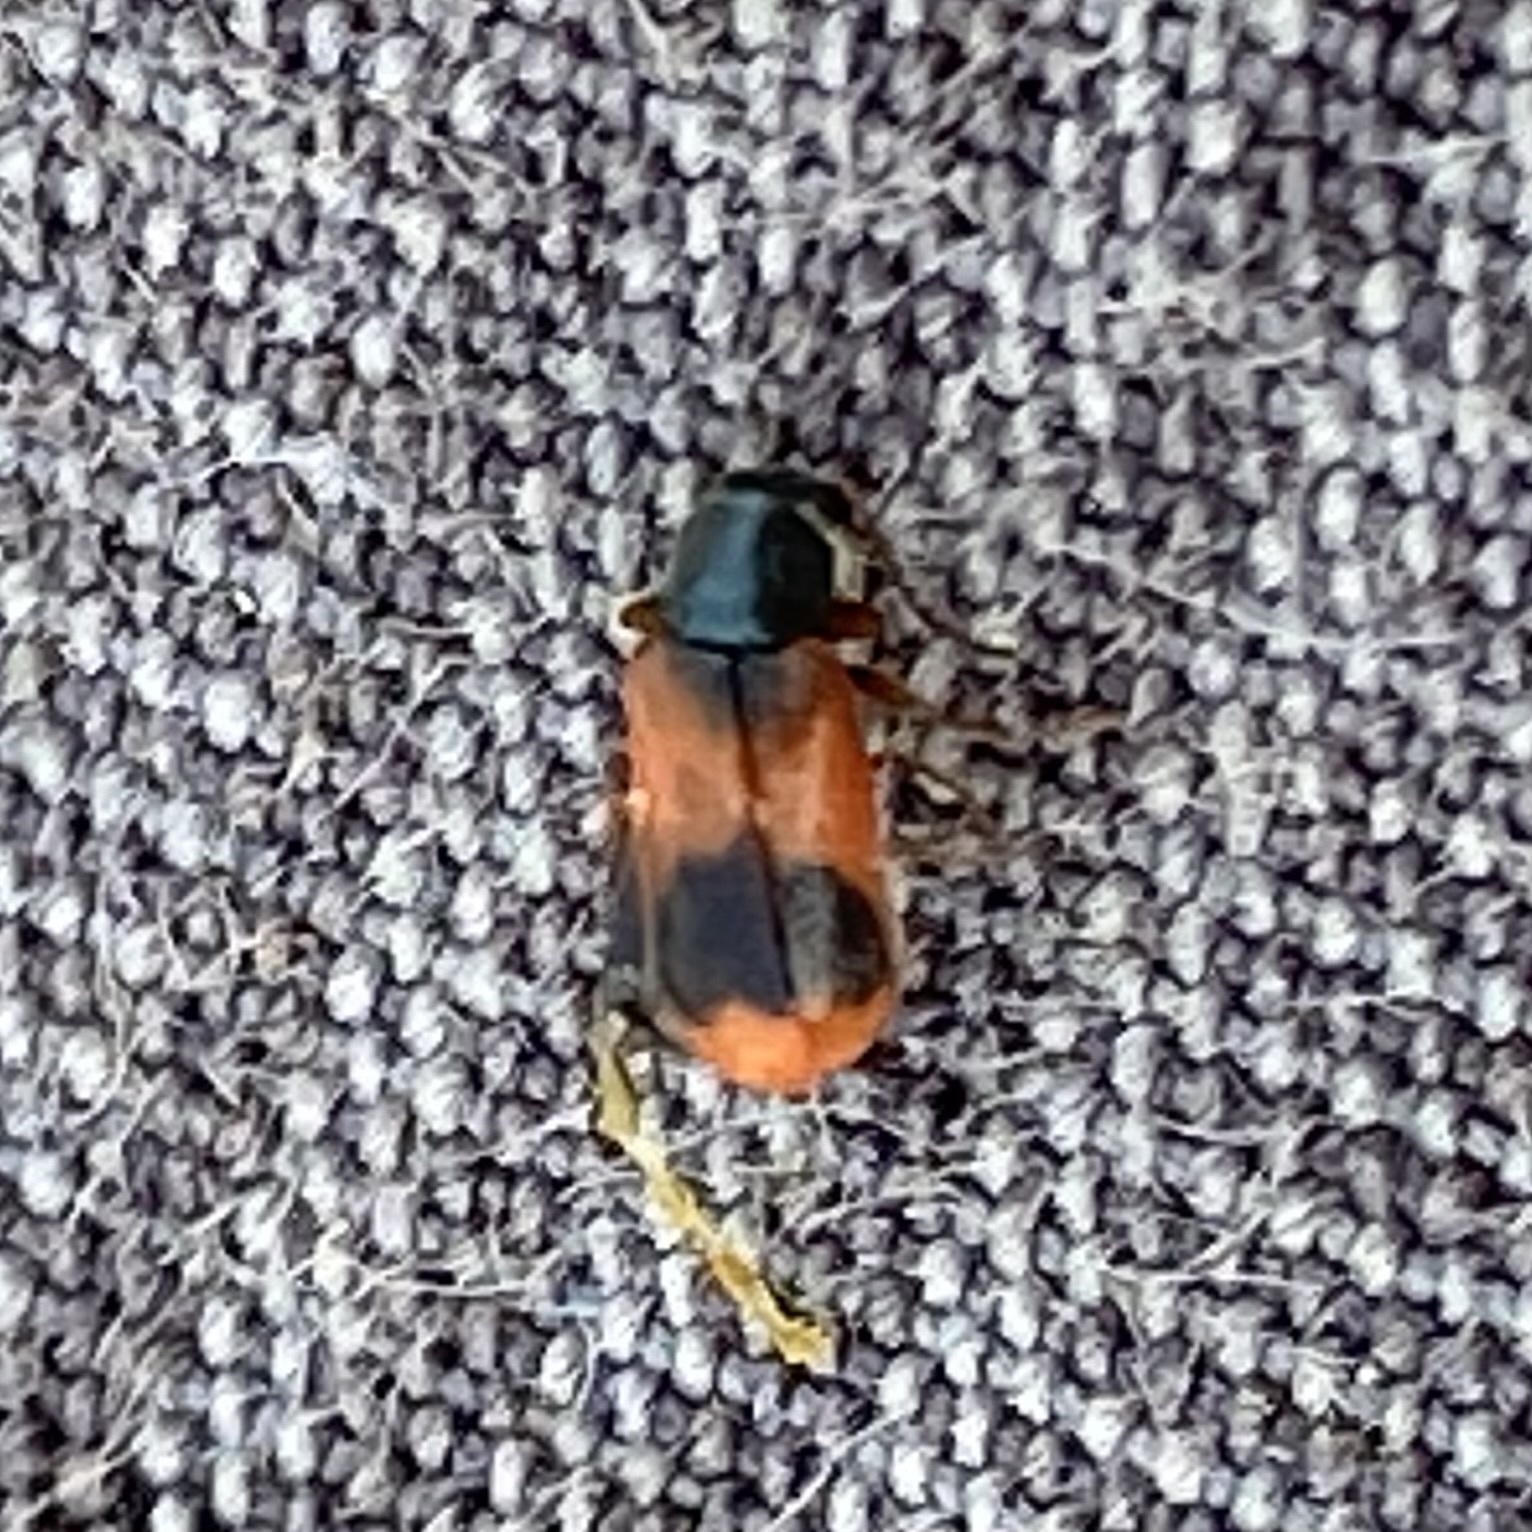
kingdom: Animalia
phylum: Arthropoda
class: Insecta
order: Coleoptera
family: Melyridae
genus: Anthocomus
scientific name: Anthocomus equestris
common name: Black-banded soft-winged flower beetle
